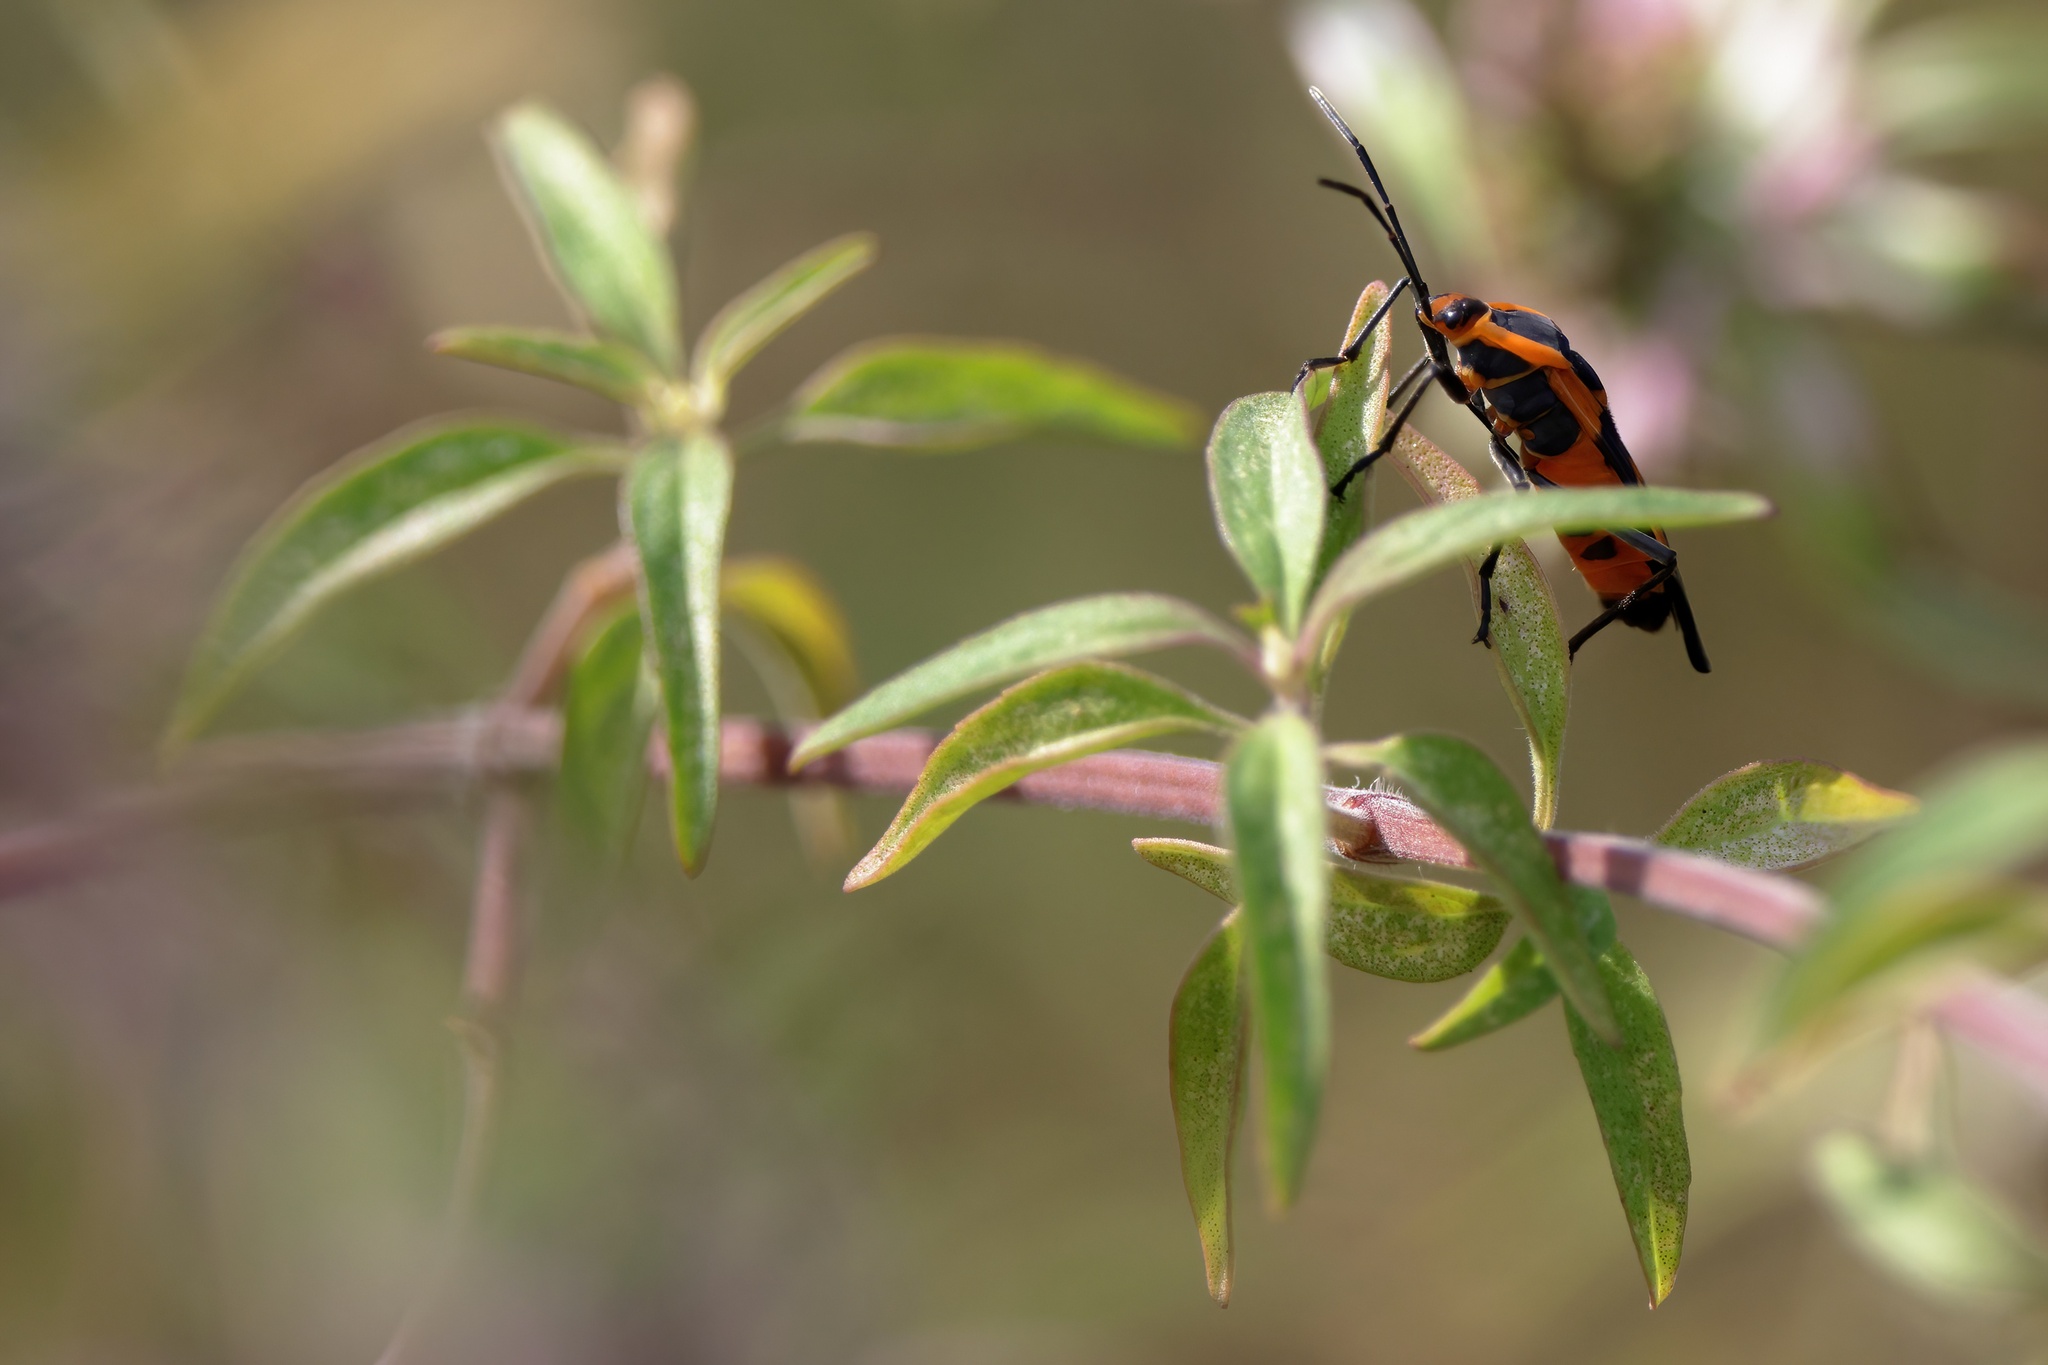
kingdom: Animalia
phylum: Arthropoda
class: Insecta
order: Hemiptera
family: Lygaeidae
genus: Oncopeltus
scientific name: Oncopeltus fasciatus
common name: Large milkweed bug
